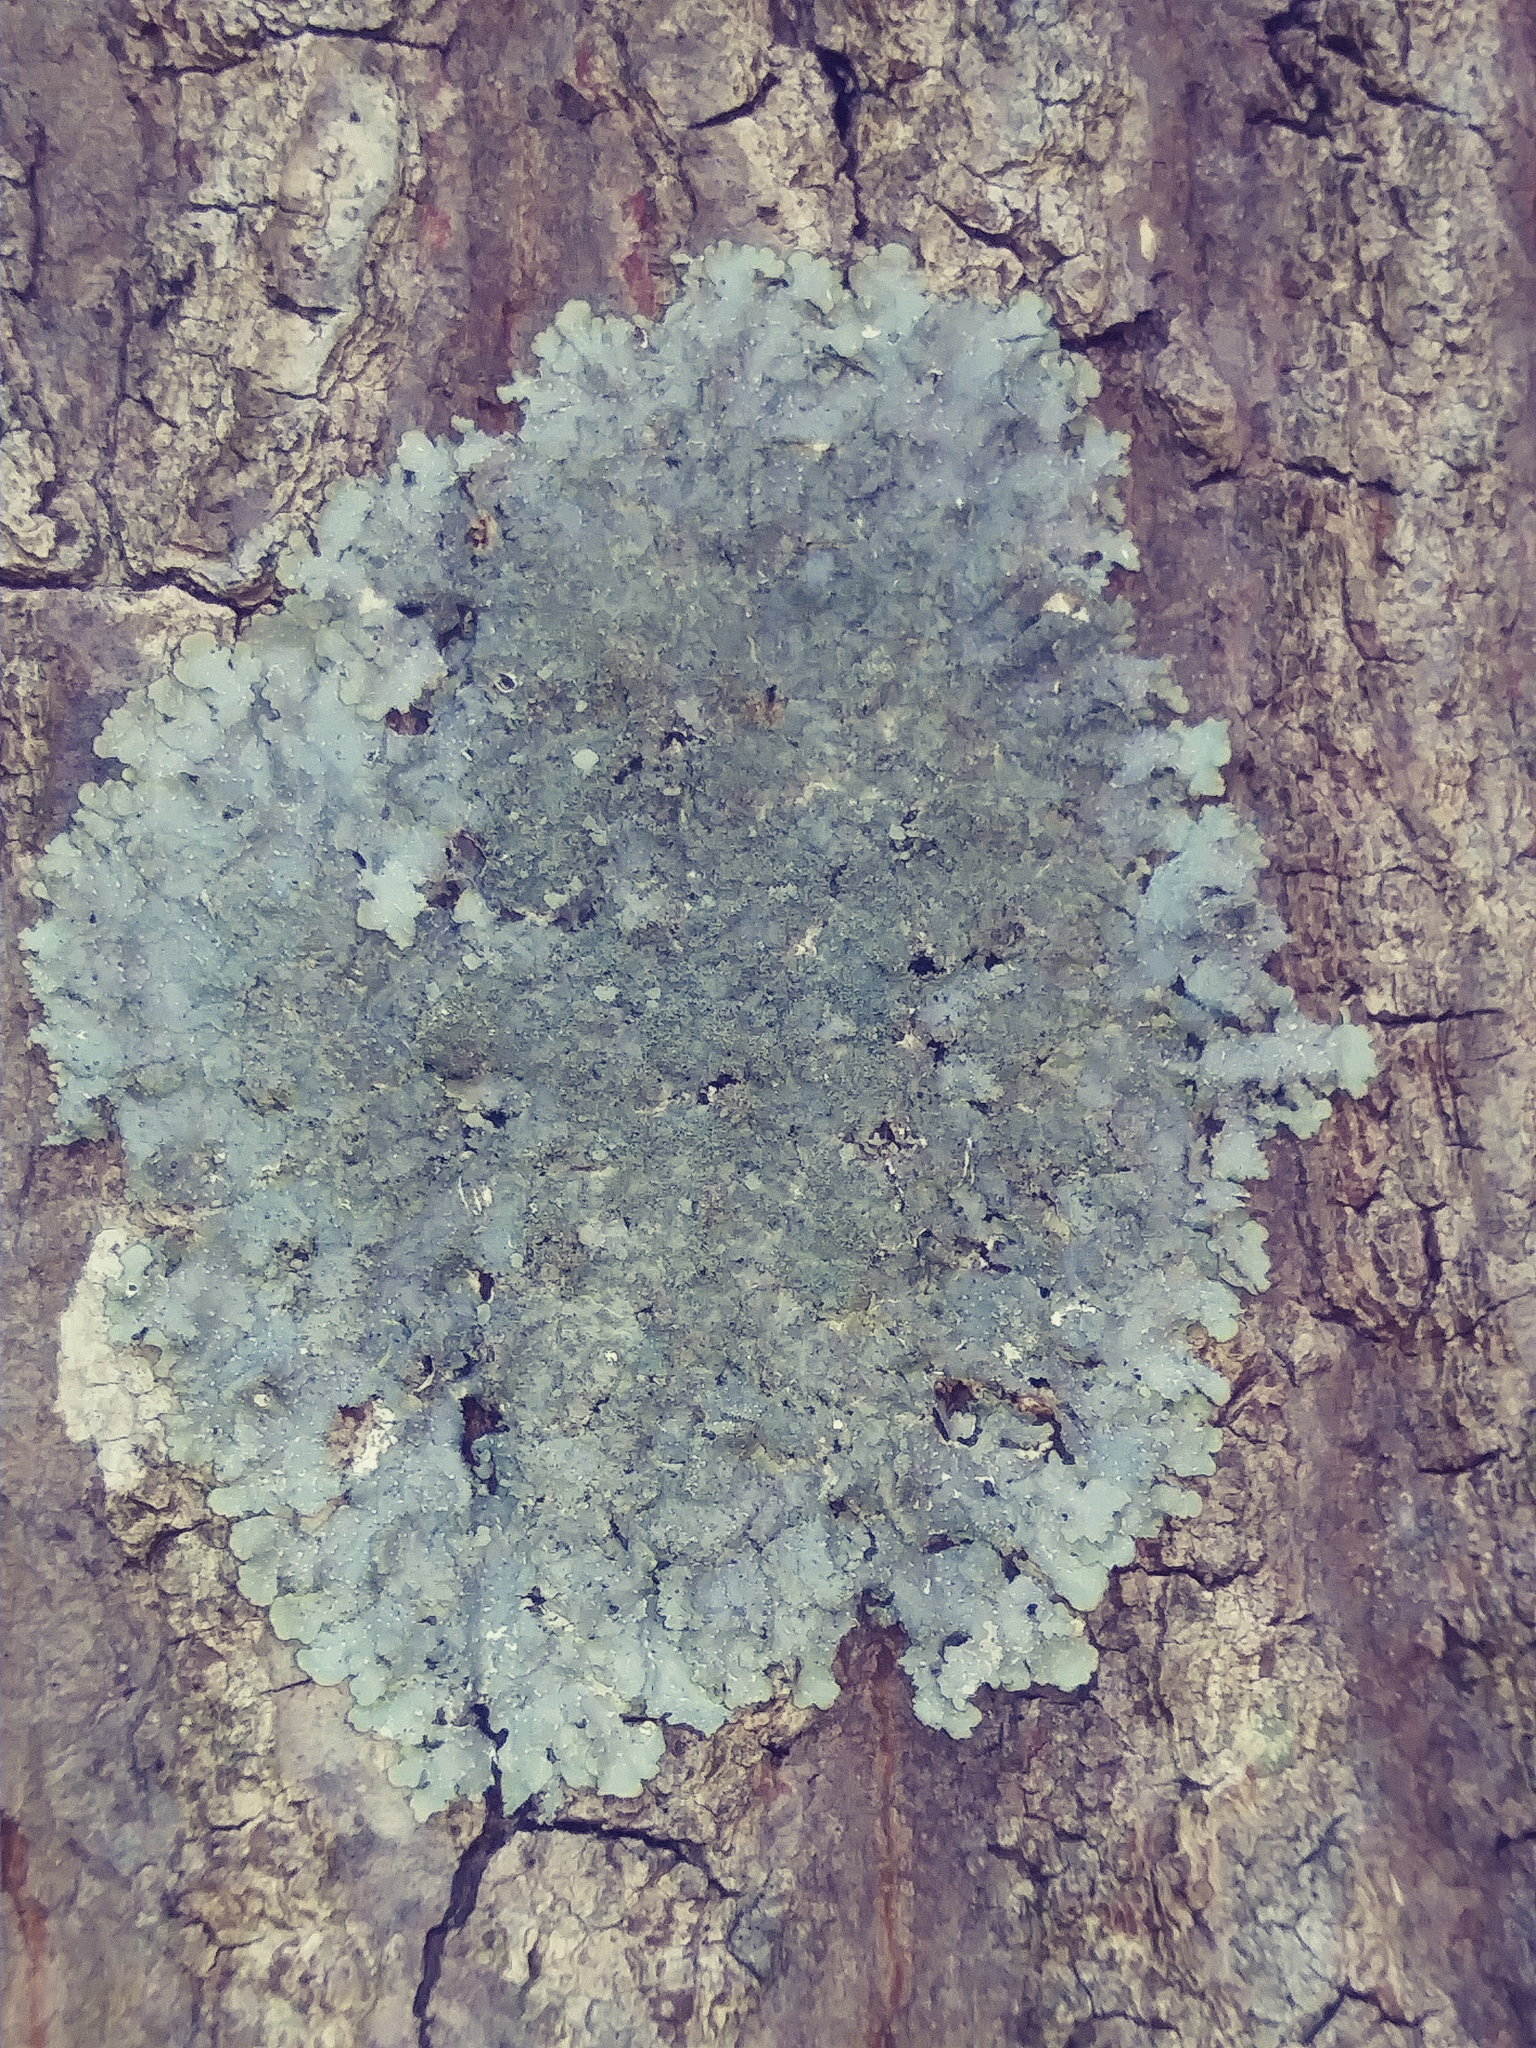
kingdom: Fungi
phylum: Ascomycota
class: Lecanoromycetes
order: Lecanorales
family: Parmeliaceae
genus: Punctelia
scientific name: Punctelia rudecta
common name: Rough speckled shield lichen
